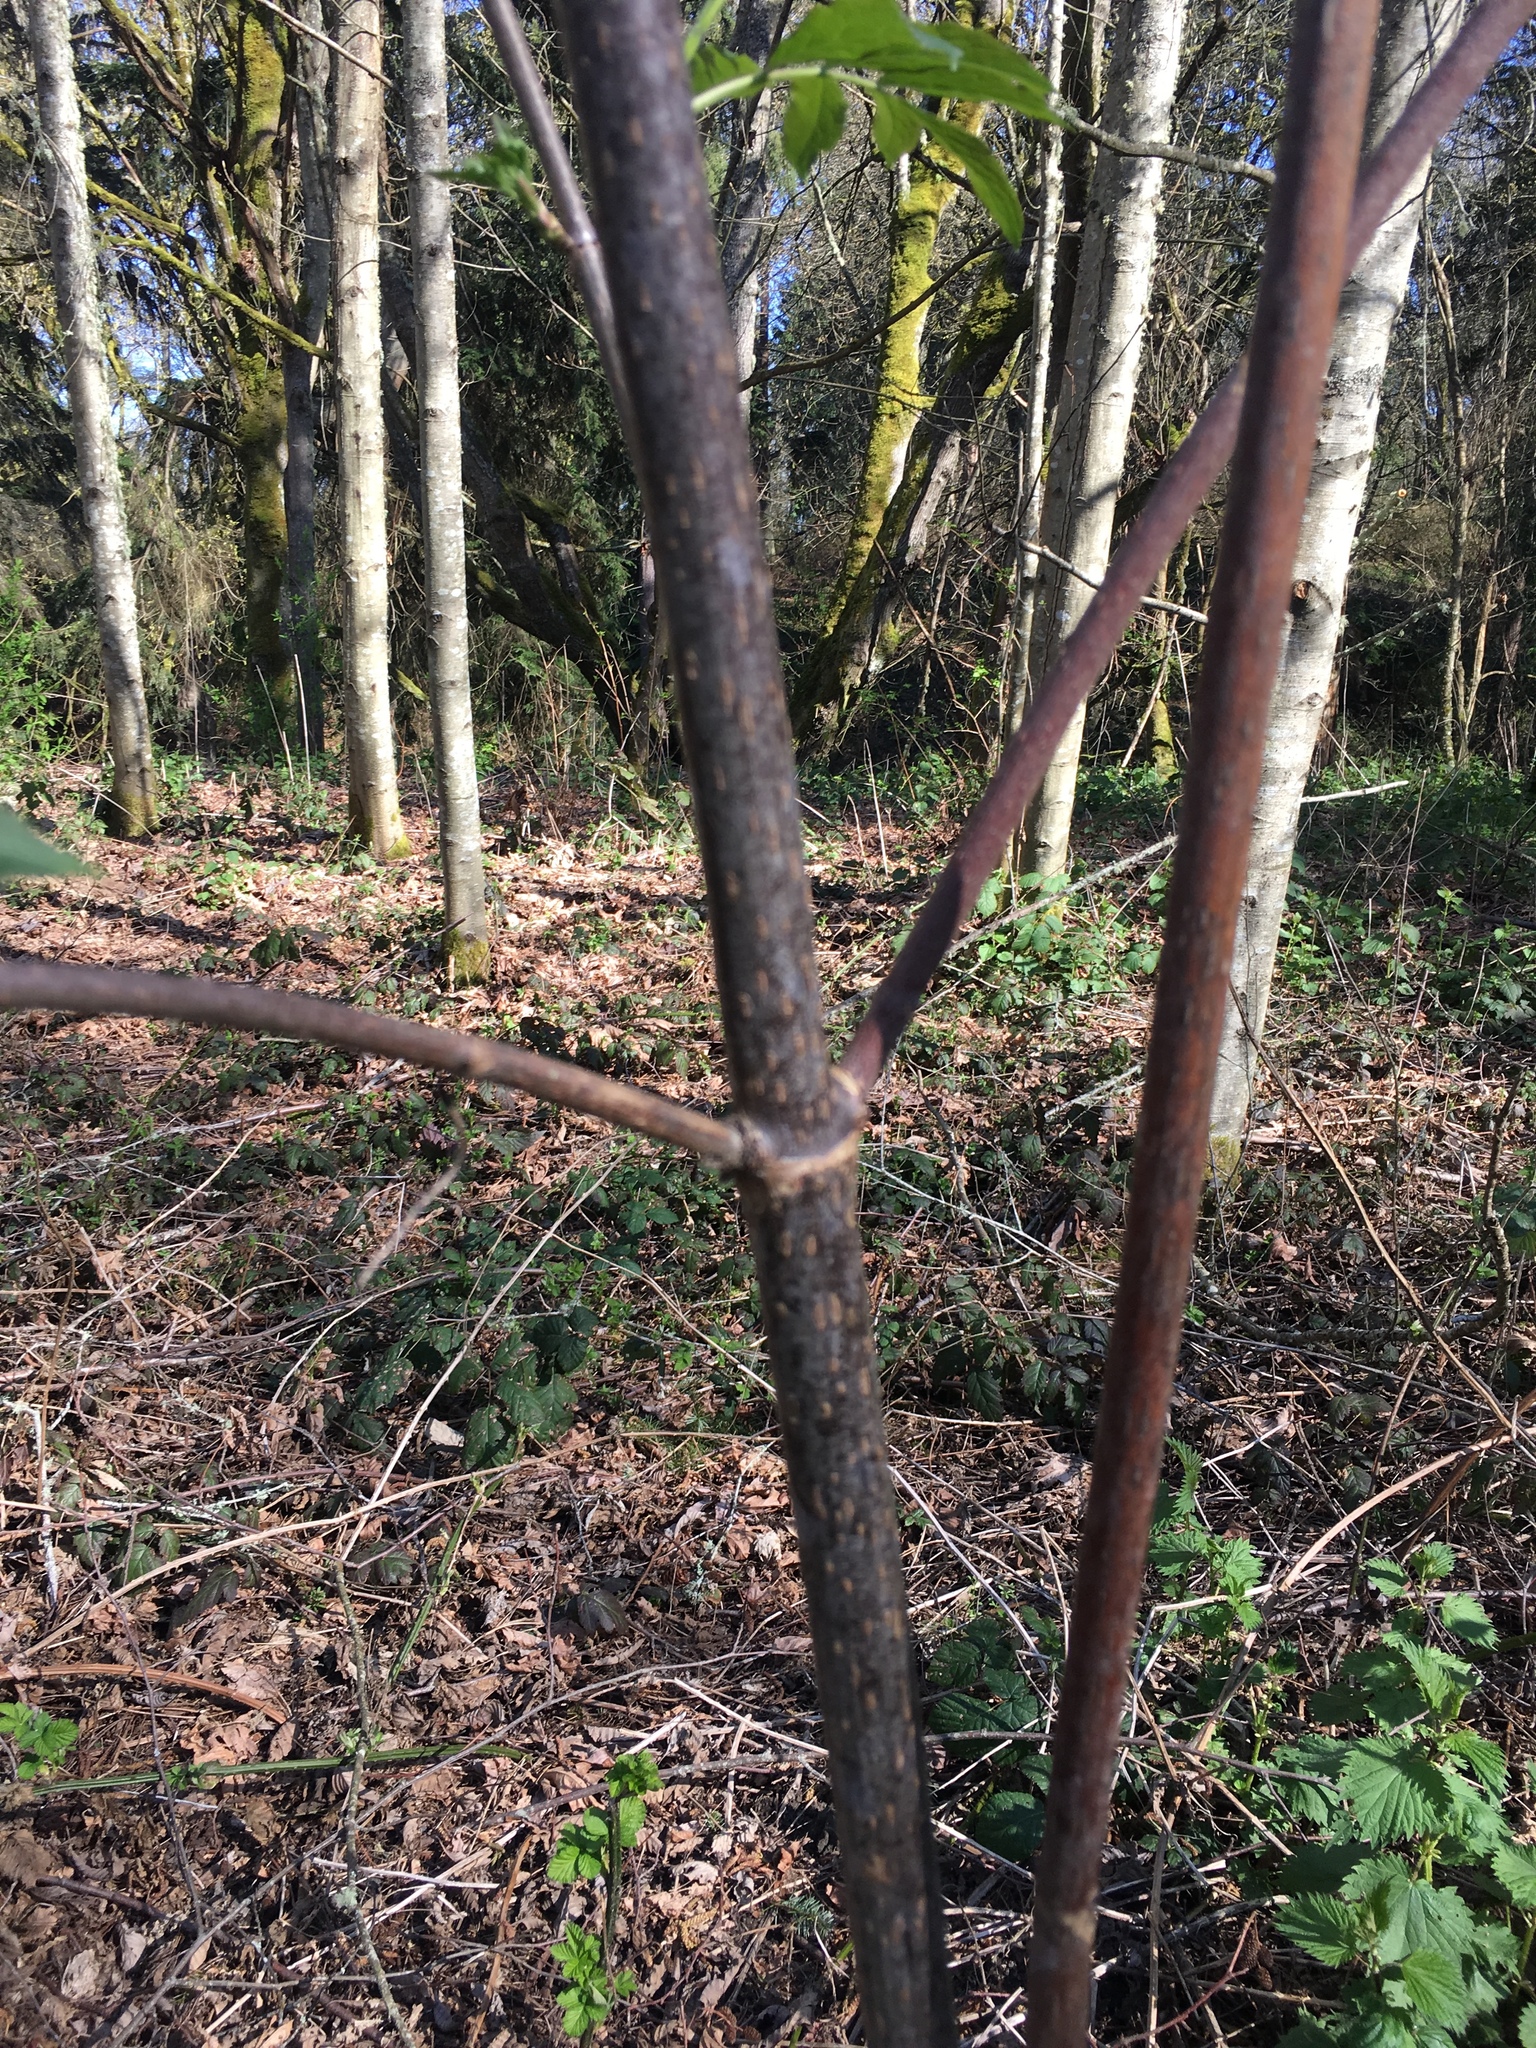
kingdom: Plantae
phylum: Tracheophyta
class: Magnoliopsida
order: Dipsacales
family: Viburnaceae
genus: Sambucus
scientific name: Sambucus racemosa
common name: Red-berried elder
